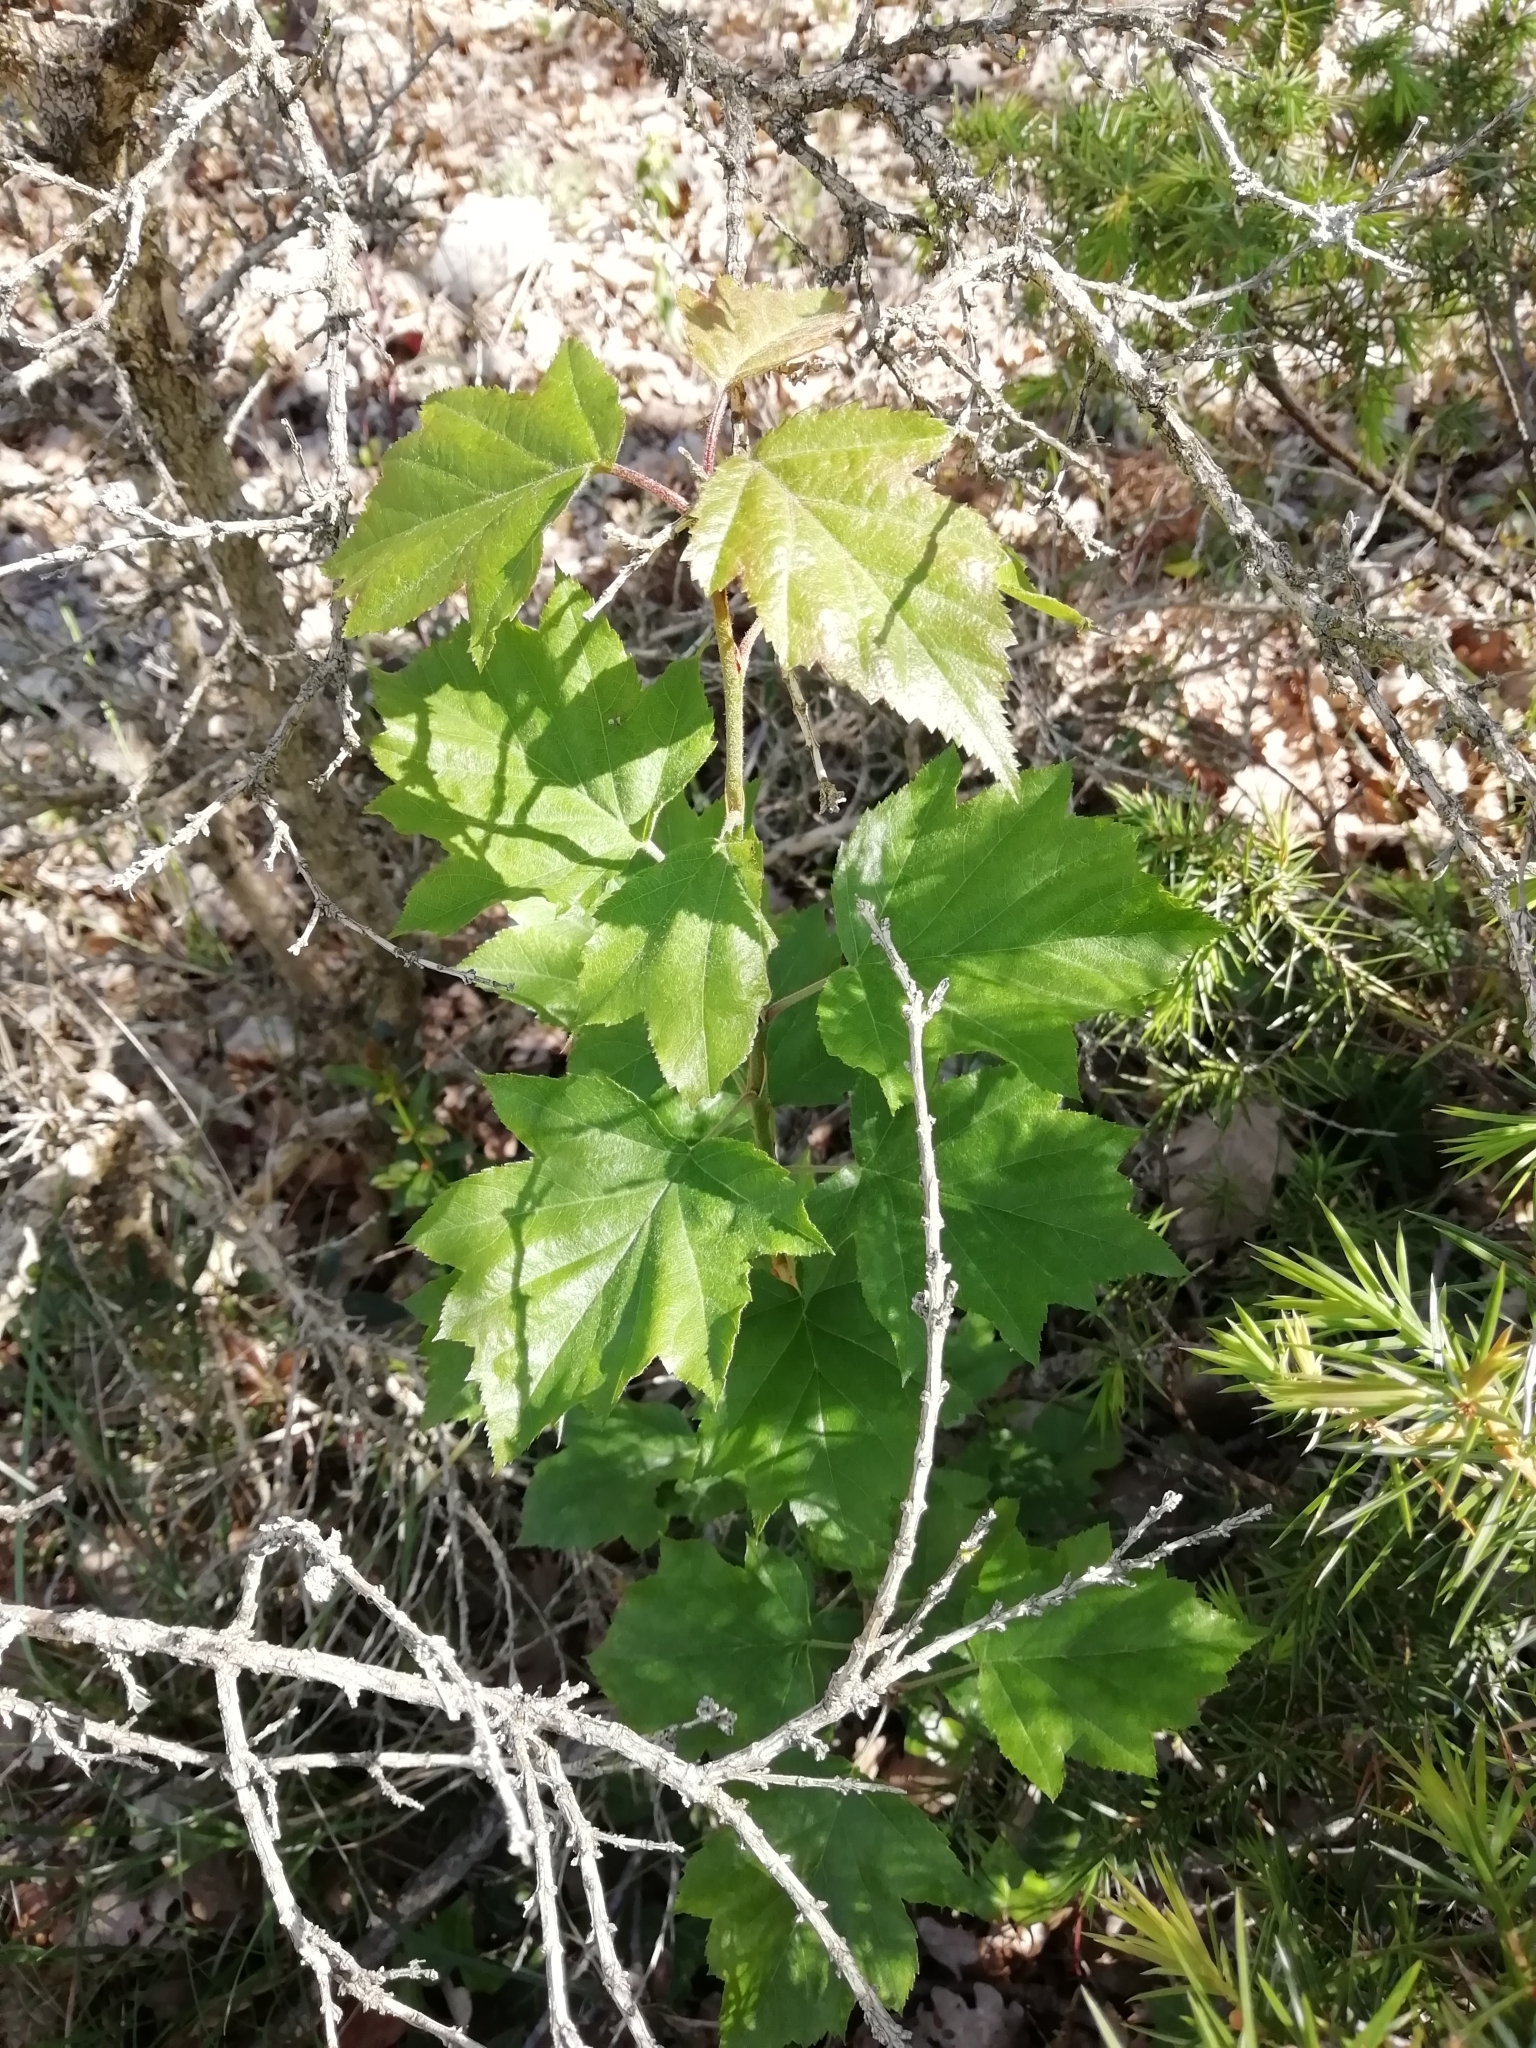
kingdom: Plantae
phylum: Tracheophyta
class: Magnoliopsida
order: Rosales
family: Rosaceae
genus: Torminalis
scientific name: Torminalis glaberrima
